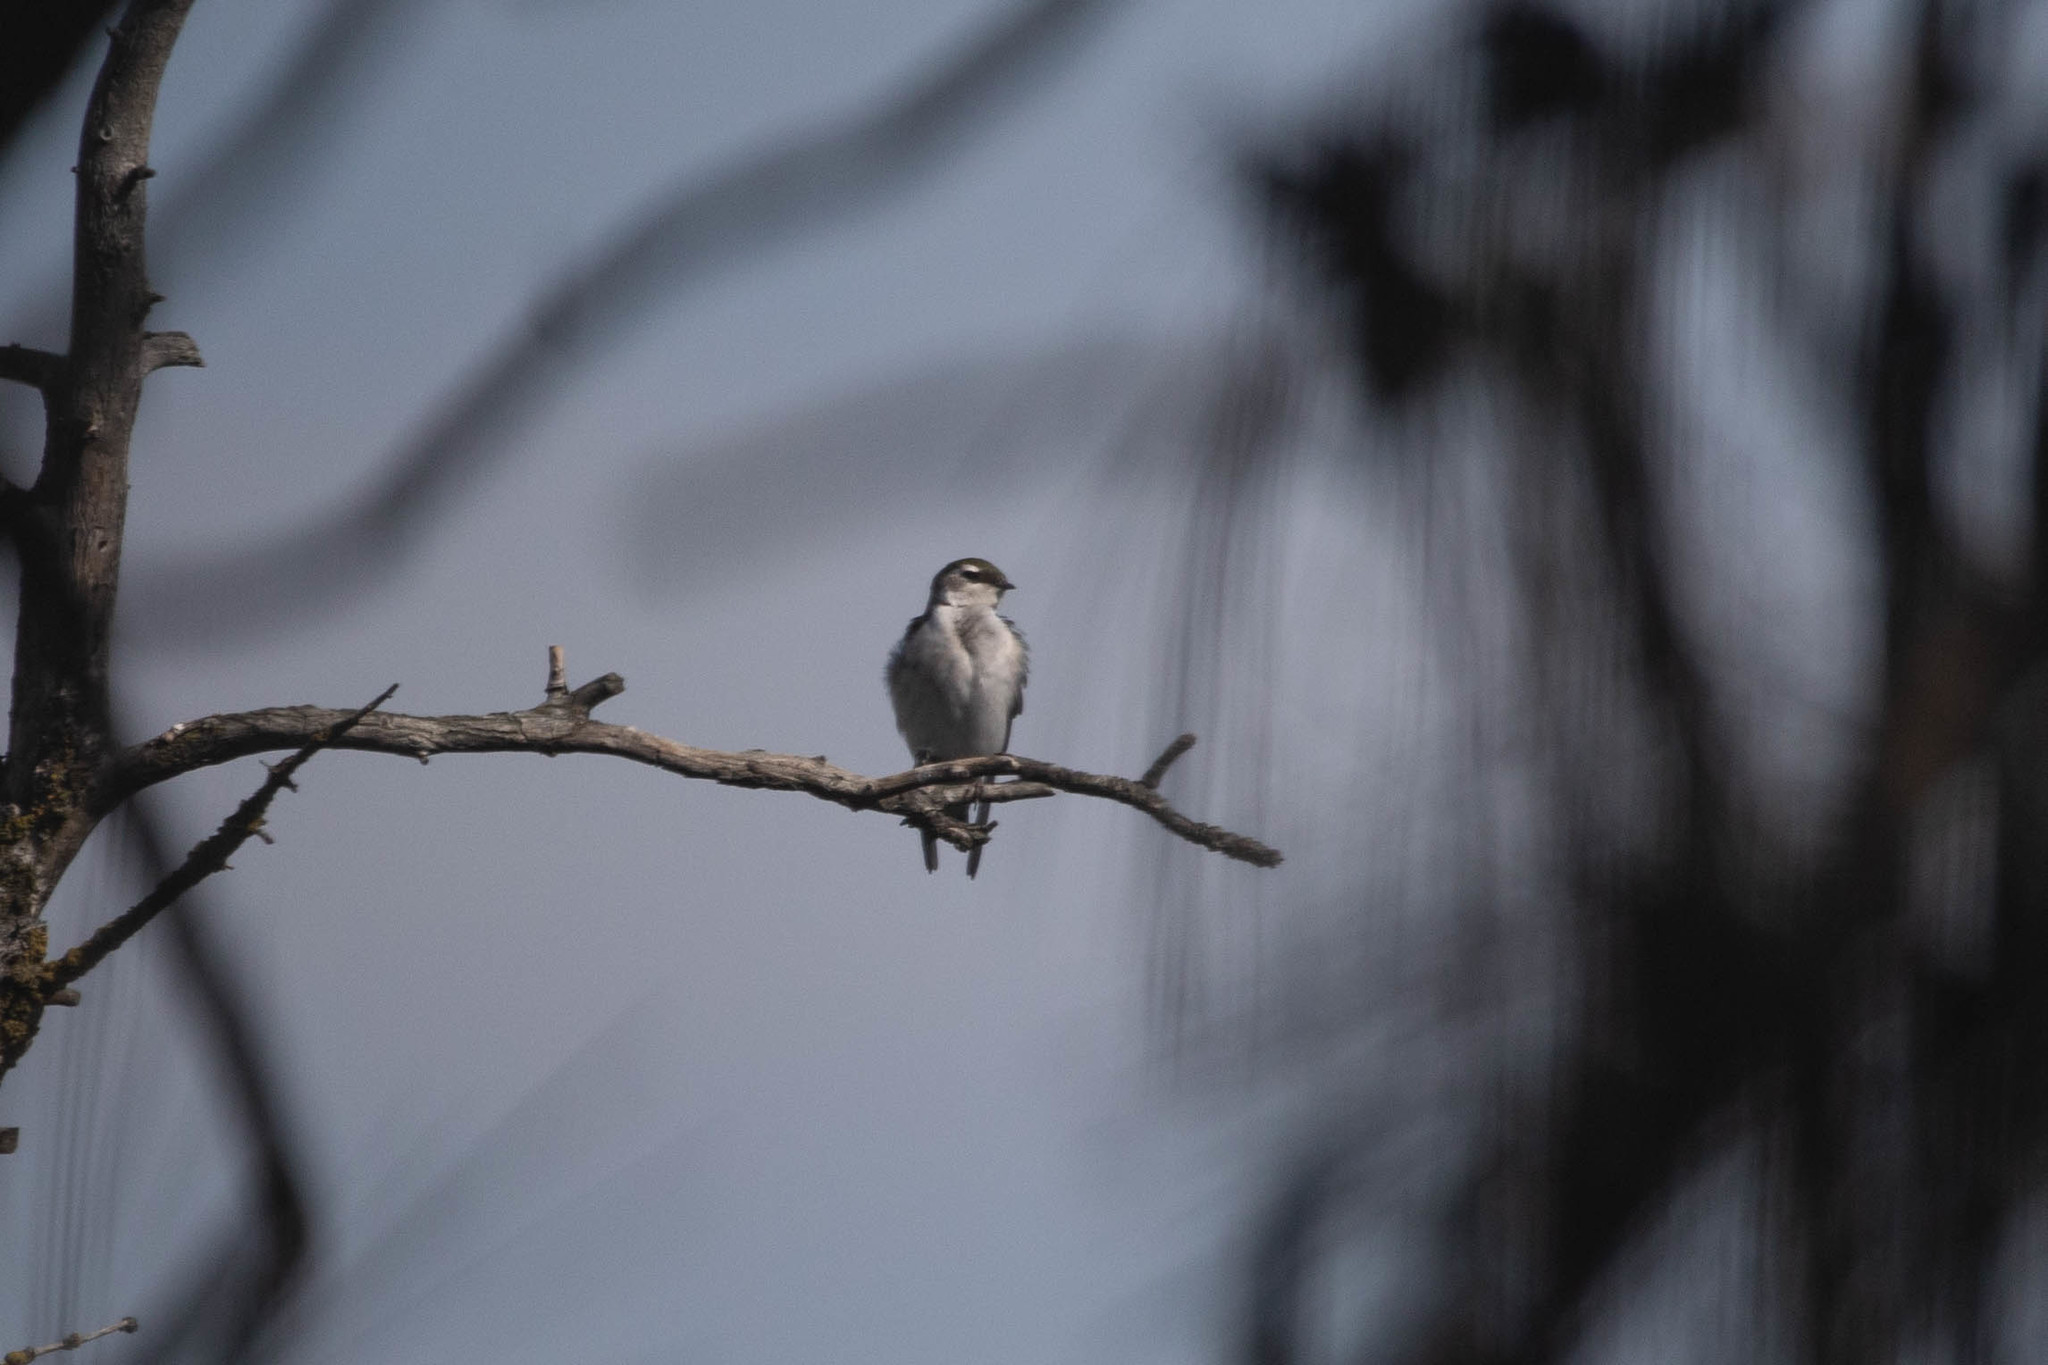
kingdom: Animalia
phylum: Chordata
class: Aves
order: Passeriformes
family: Hirundinidae
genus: Tachycineta
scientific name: Tachycineta thalassina
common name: Violet-green swallow
